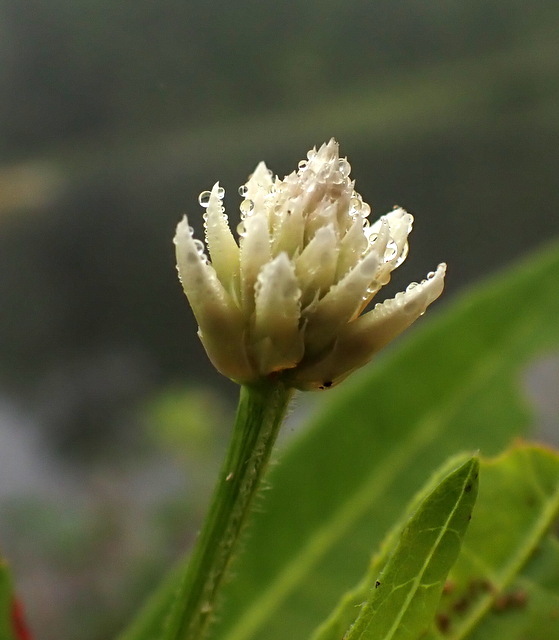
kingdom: Plantae
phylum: Tracheophyta
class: Magnoliopsida
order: Caryophyllales
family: Amaranthaceae
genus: Alternanthera
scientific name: Alternanthera philoxeroides
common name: Alligatorweed
